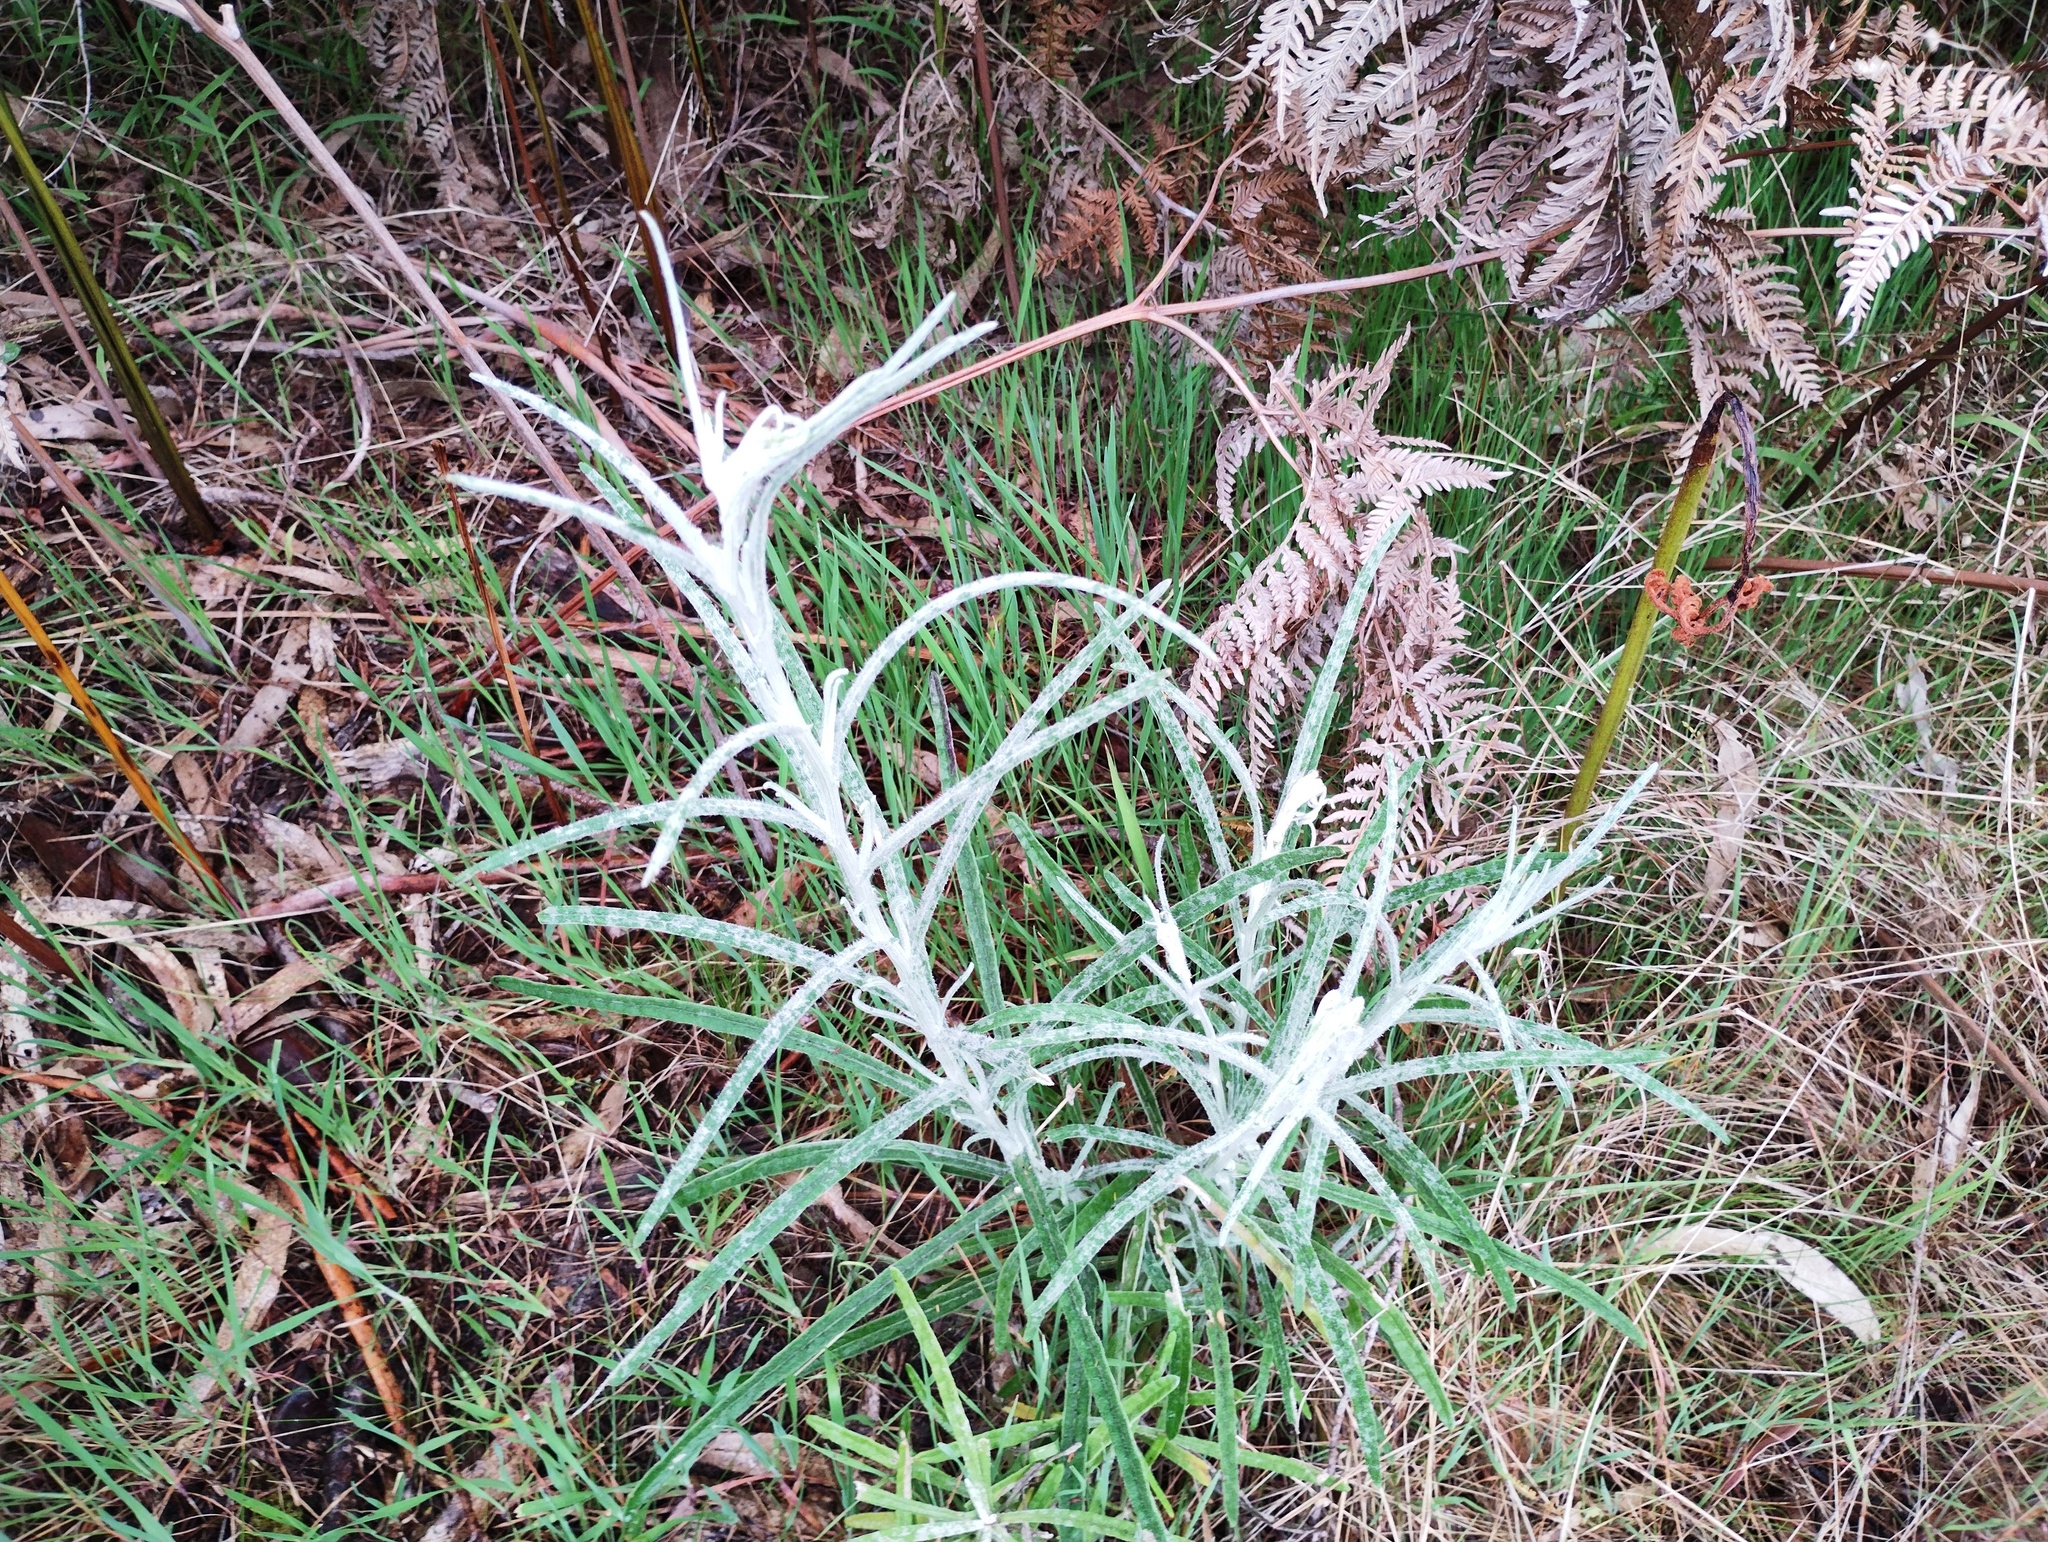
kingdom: Plantae
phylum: Tracheophyta
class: Magnoliopsida
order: Asterales
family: Asteraceae
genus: Senecio
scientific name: Senecio quadridentatus
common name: Cotton fireweed
